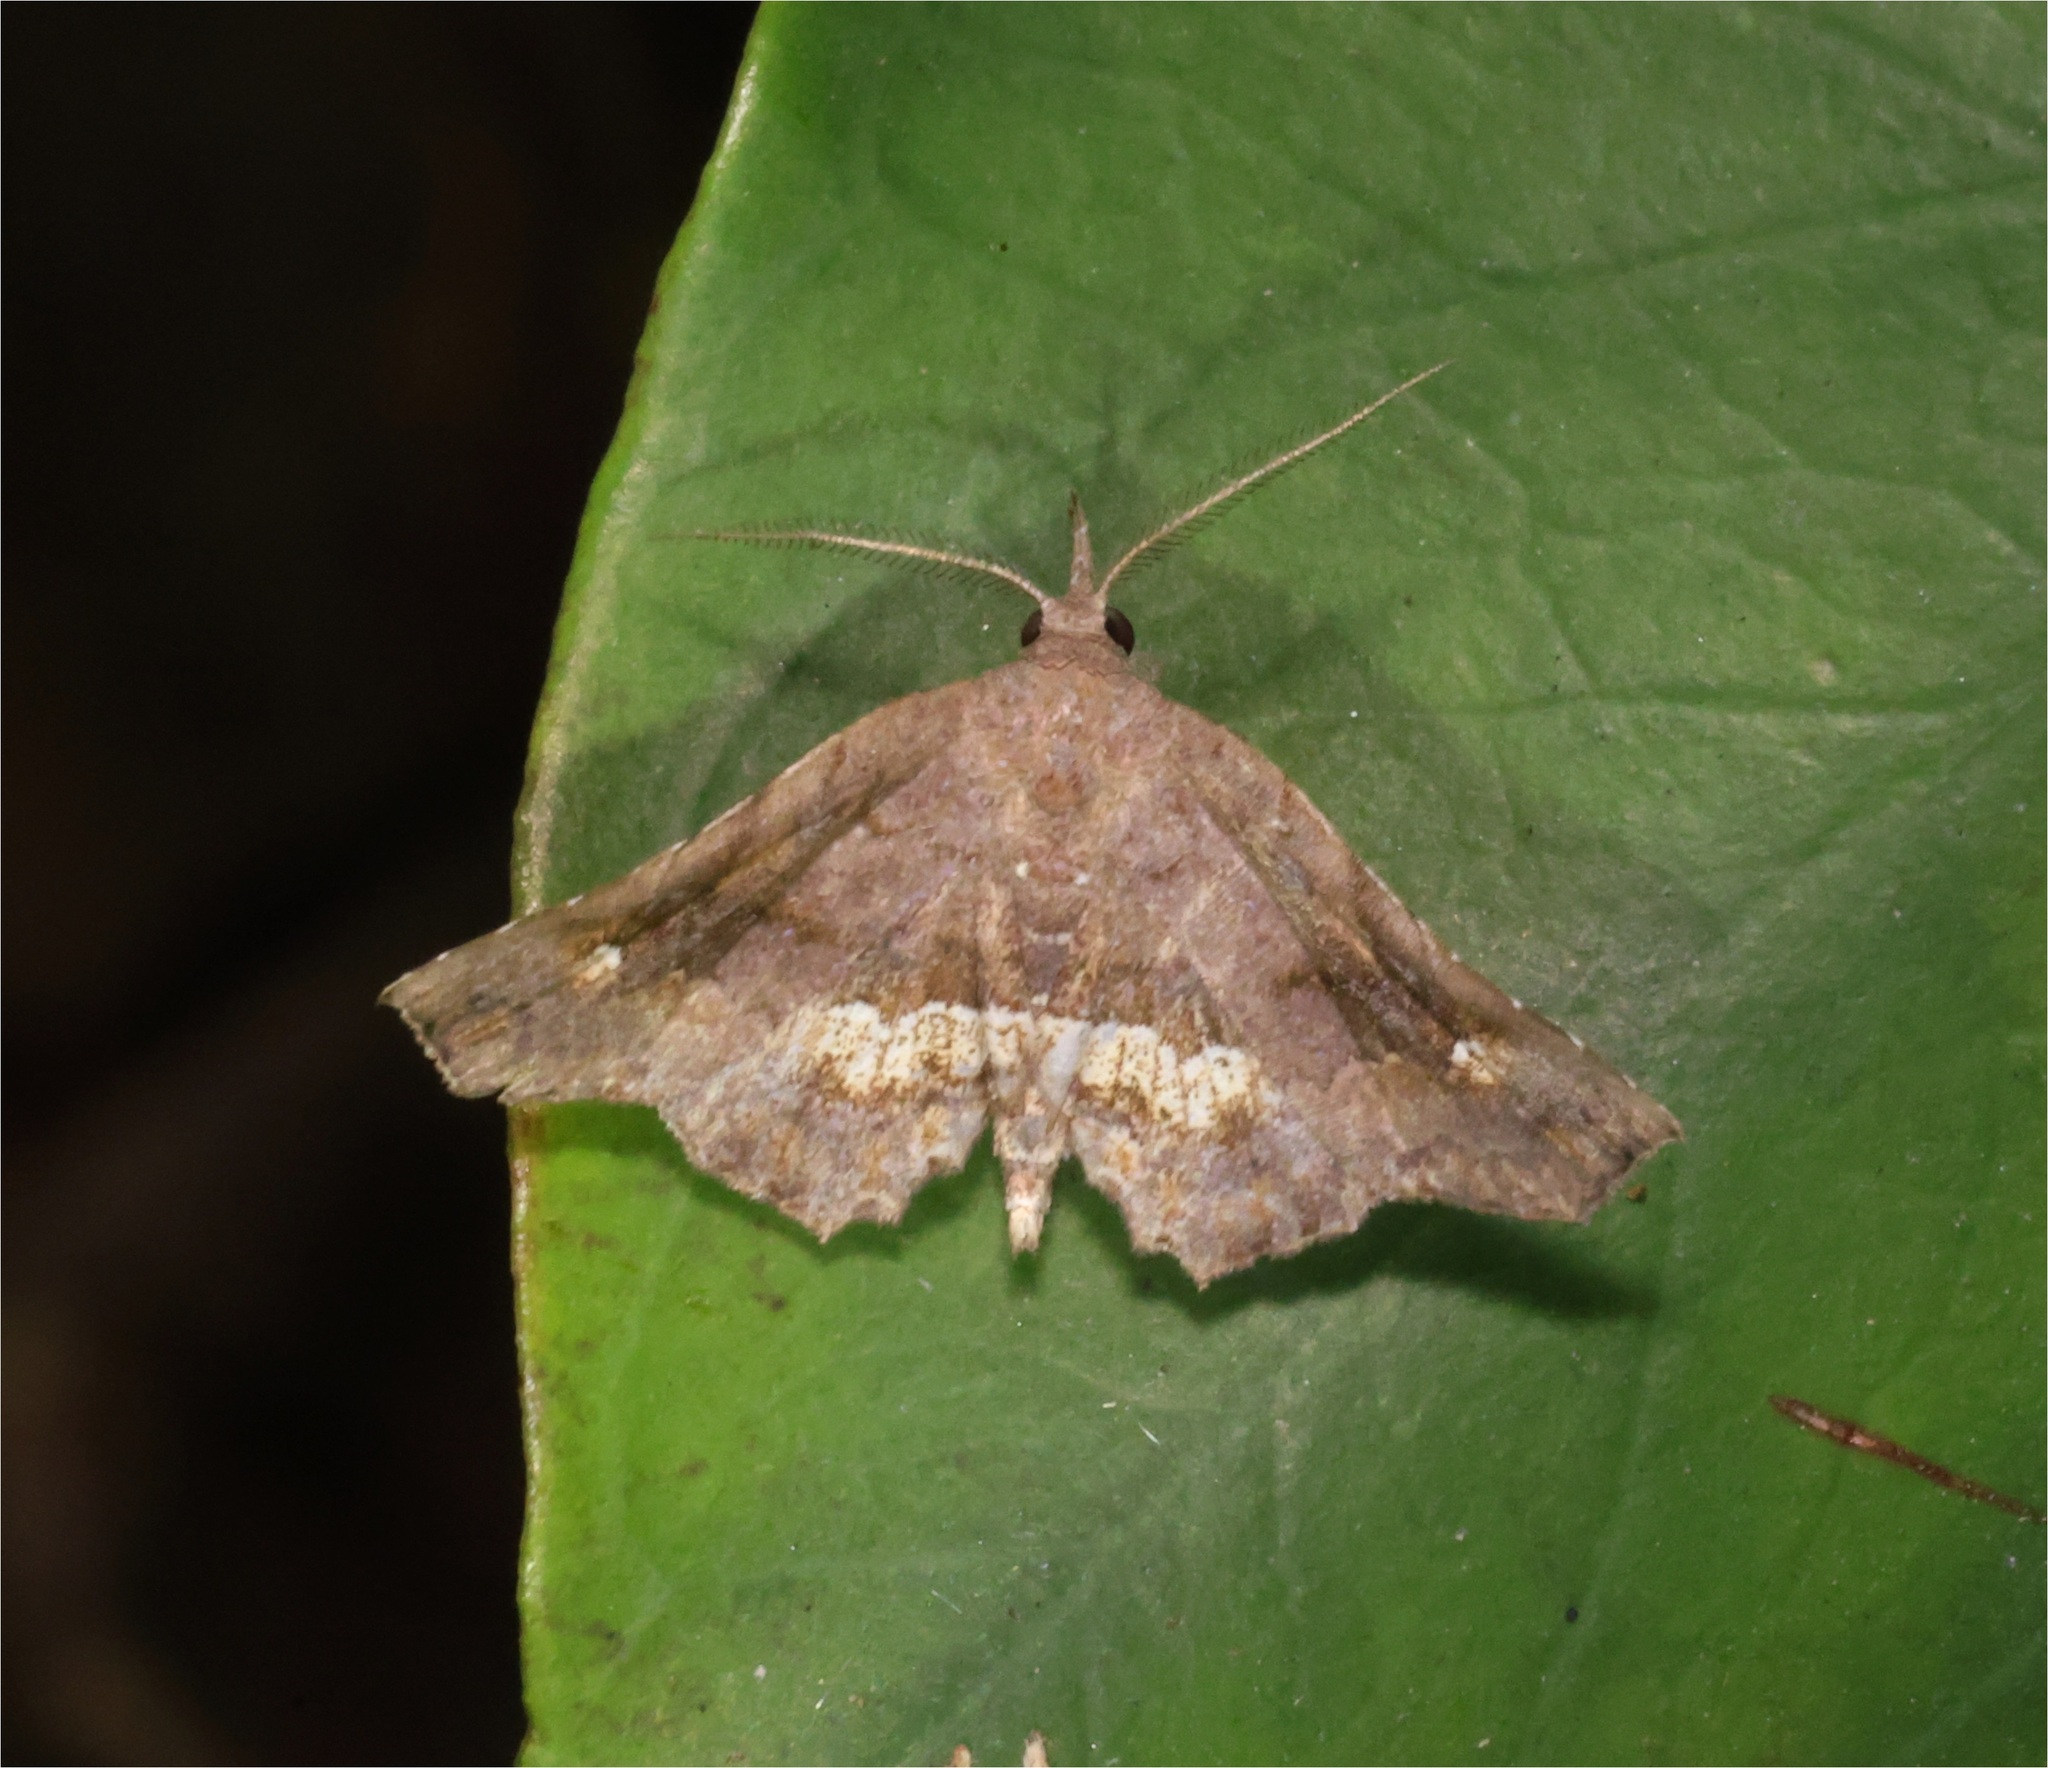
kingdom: Animalia
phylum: Arthropoda
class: Insecta
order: Lepidoptera
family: Erebidae
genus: Throana
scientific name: Throana pectinifer
